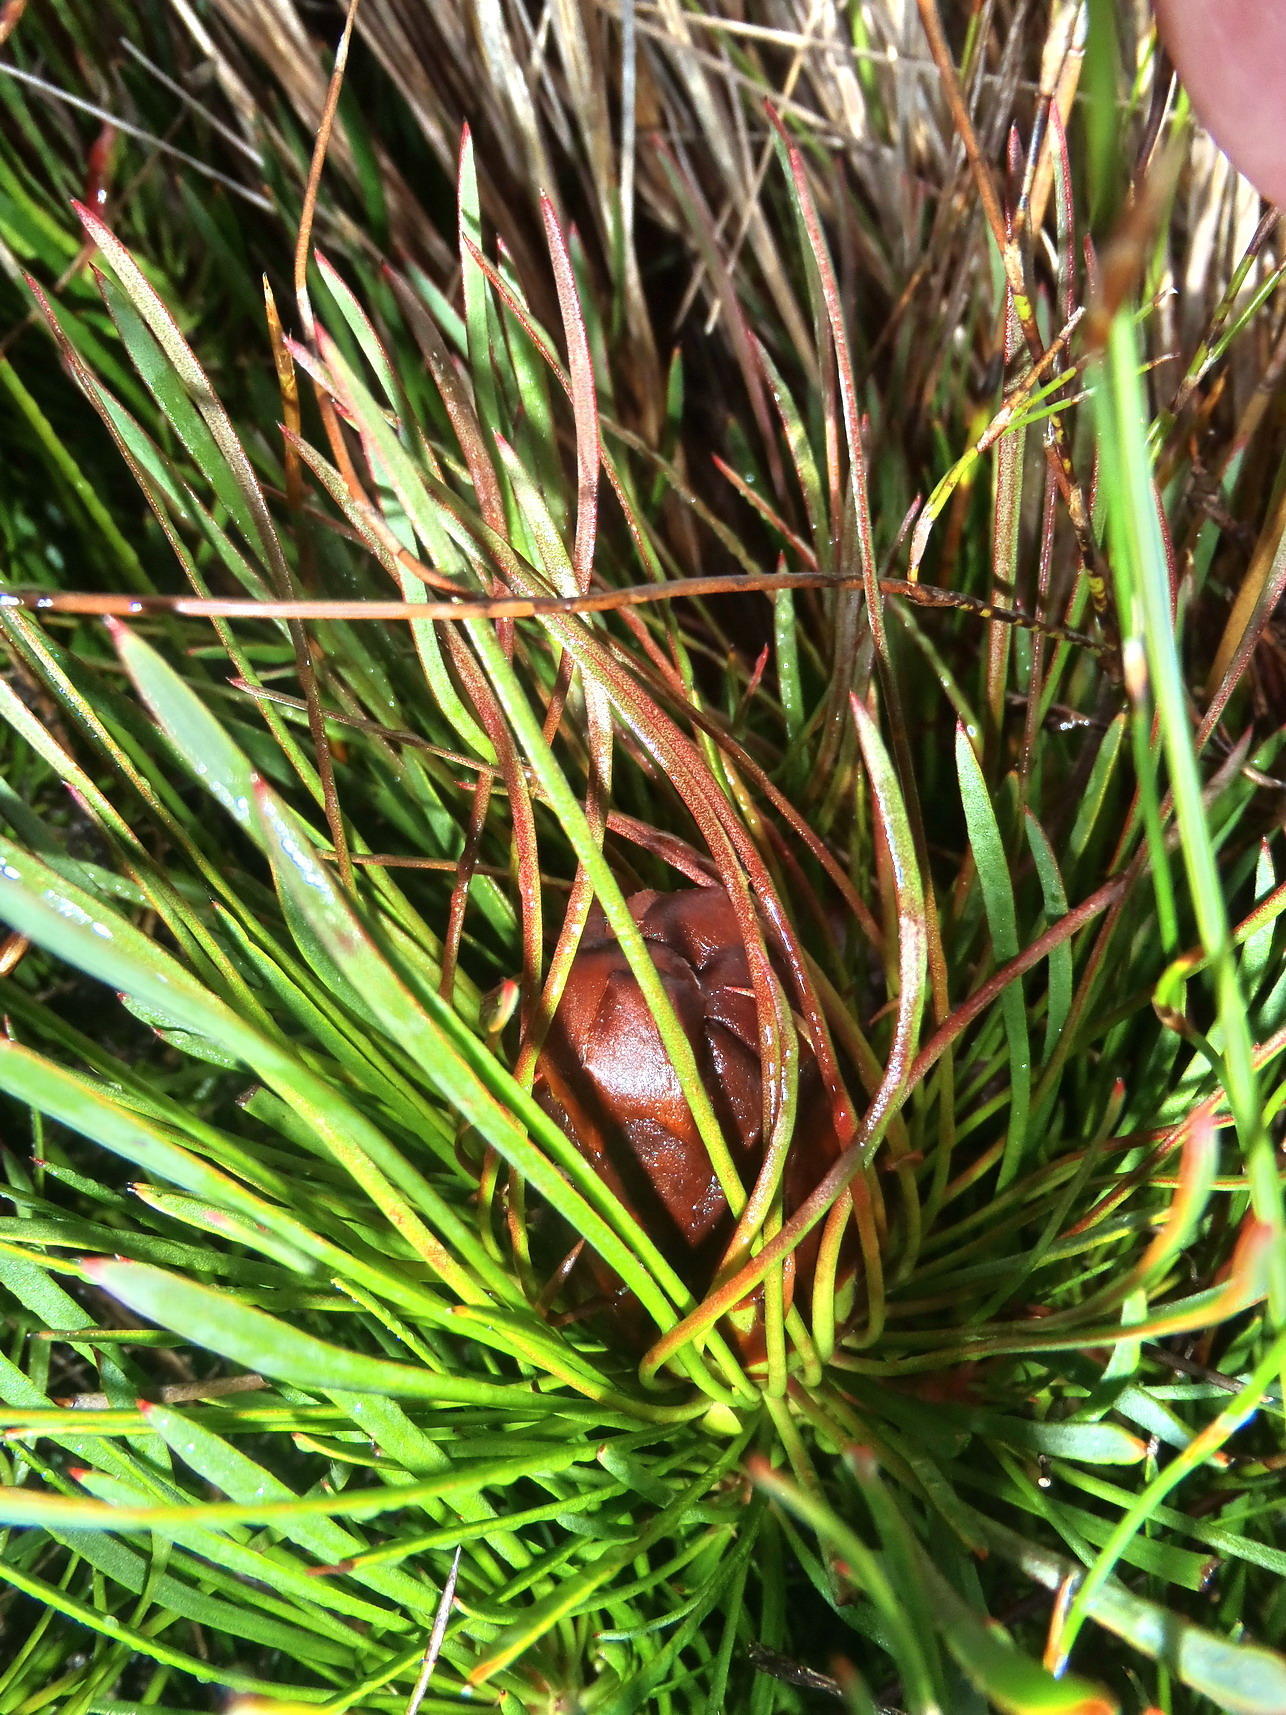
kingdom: Plantae
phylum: Tracheophyta
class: Magnoliopsida
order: Proteales
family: Proteaceae
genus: Protea
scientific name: Protea montana
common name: Swartberg sugarbush
